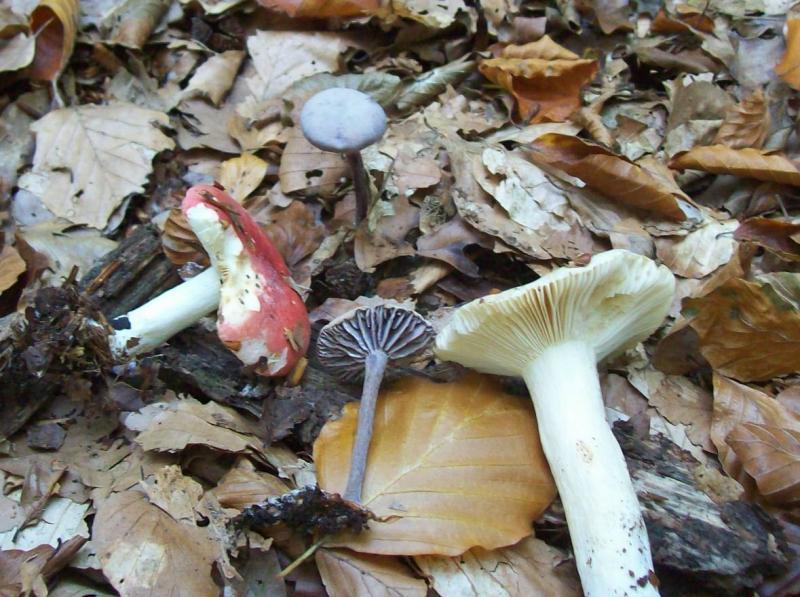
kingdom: Fungi
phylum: Basidiomycota
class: Agaricomycetes
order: Agaricales
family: Hydnangiaceae
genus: Laccaria
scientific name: Laccaria amethystina
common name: Amethyst deceiver
